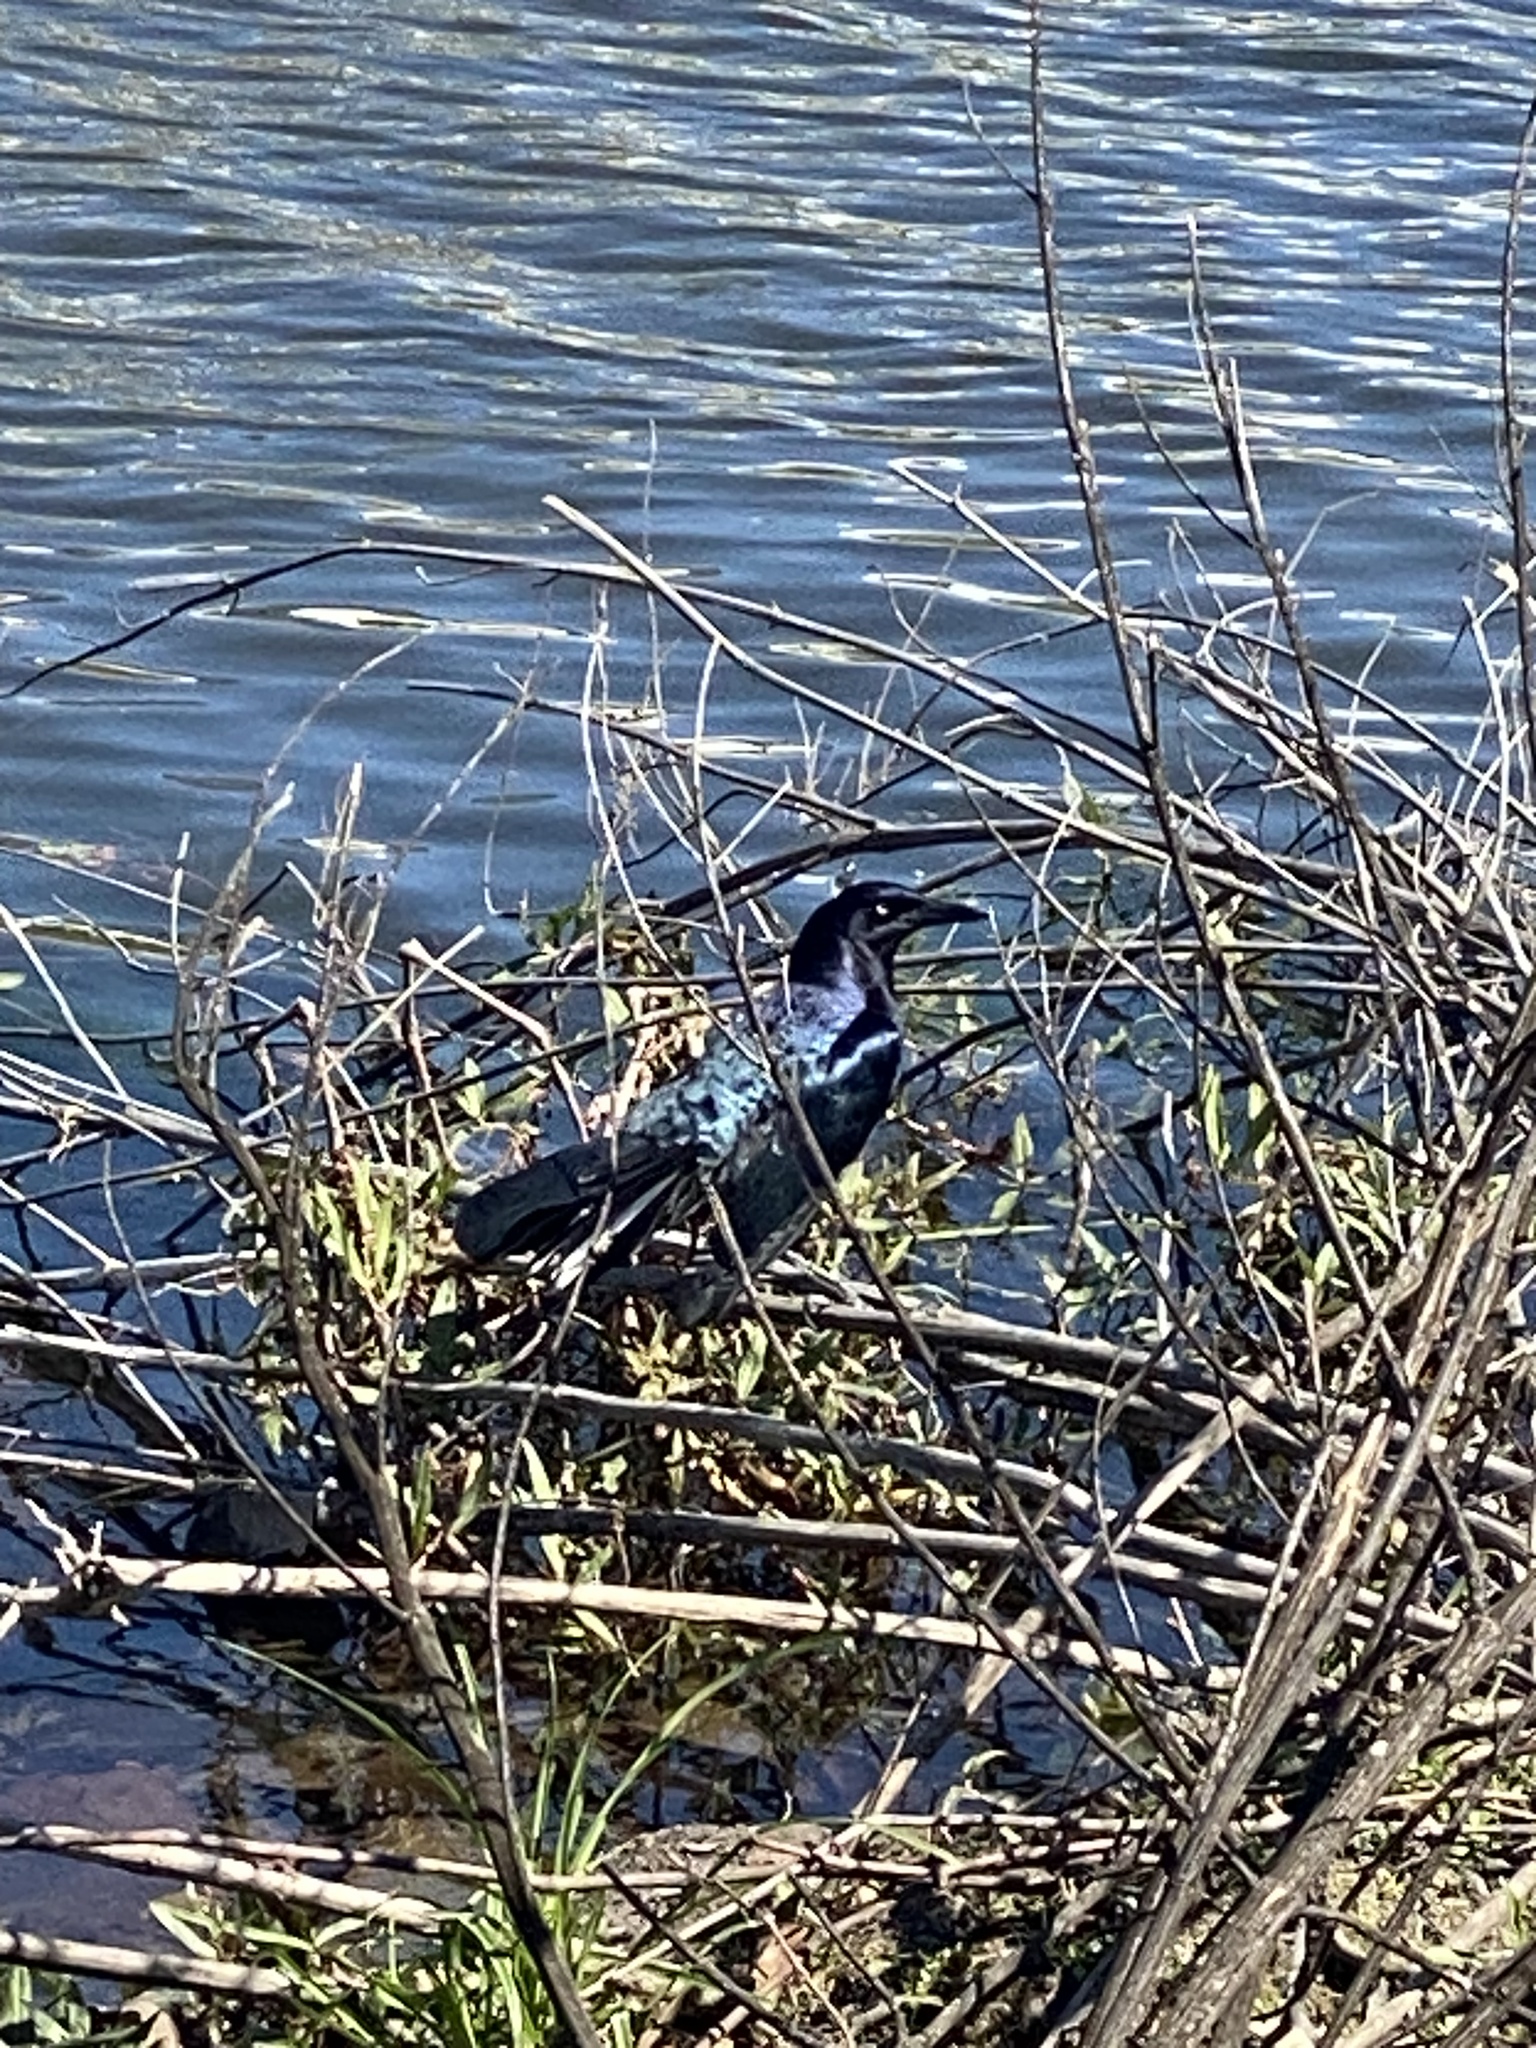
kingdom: Animalia
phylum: Chordata
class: Aves
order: Passeriformes
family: Icteridae
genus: Quiscalus
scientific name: Quiscalus mexicanus
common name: Great-tailed grackle
